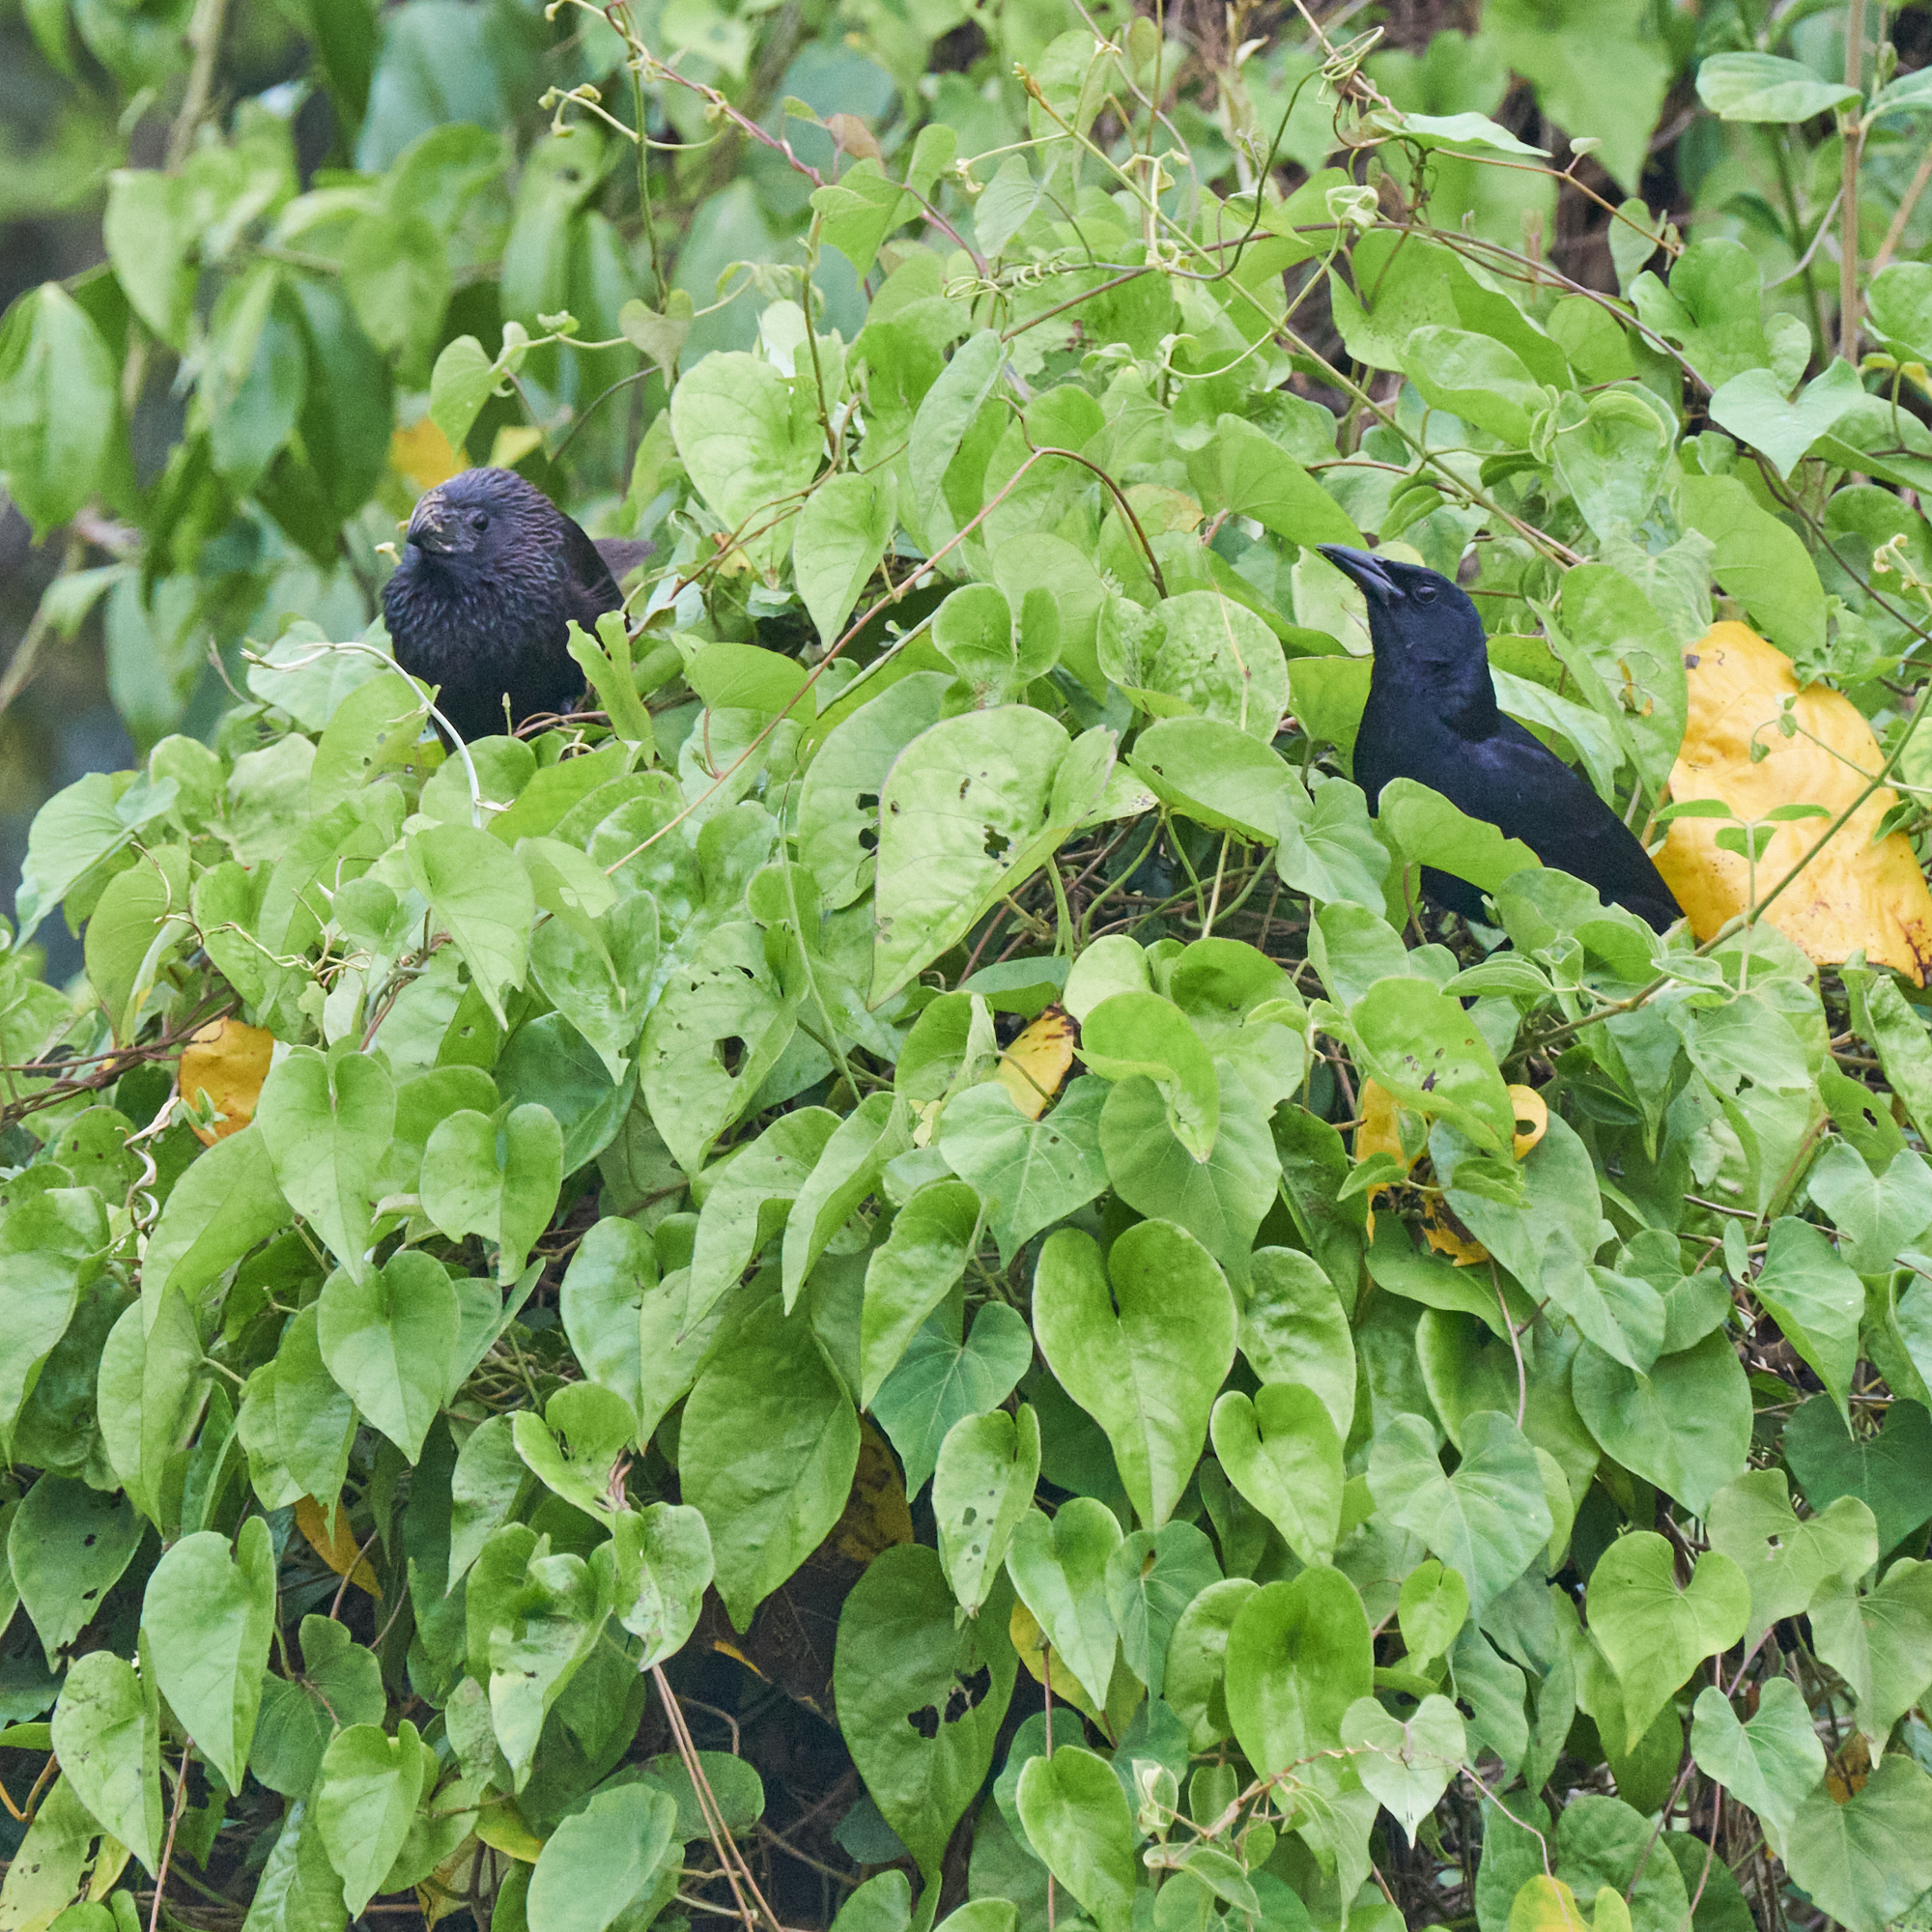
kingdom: Animalia
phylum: Chordata
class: Aves
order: Passeriformes
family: Icteridae
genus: Dives
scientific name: Dives dives
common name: Melodious blackbird
